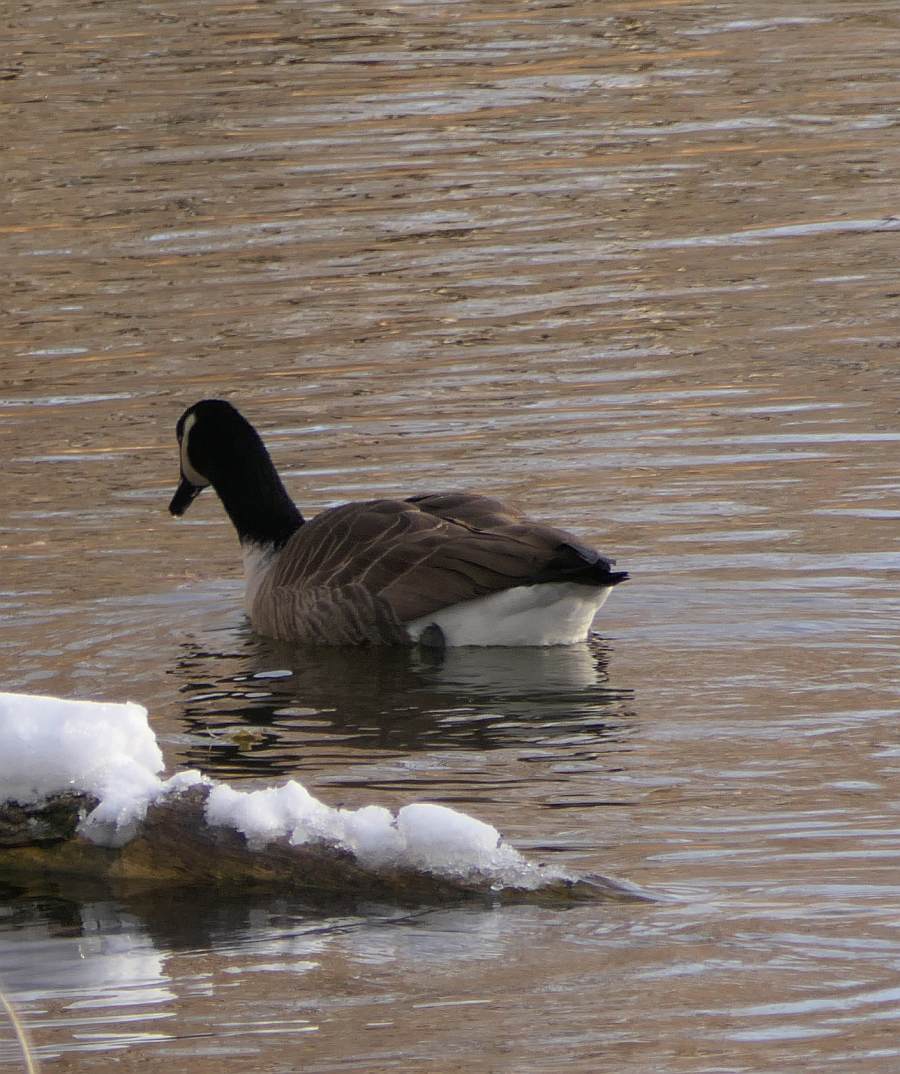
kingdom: Animalia
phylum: Chordata
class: Aves
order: Anseriformes
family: Anatidae
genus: Branta
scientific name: Branta canadensis
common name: Canada goose
